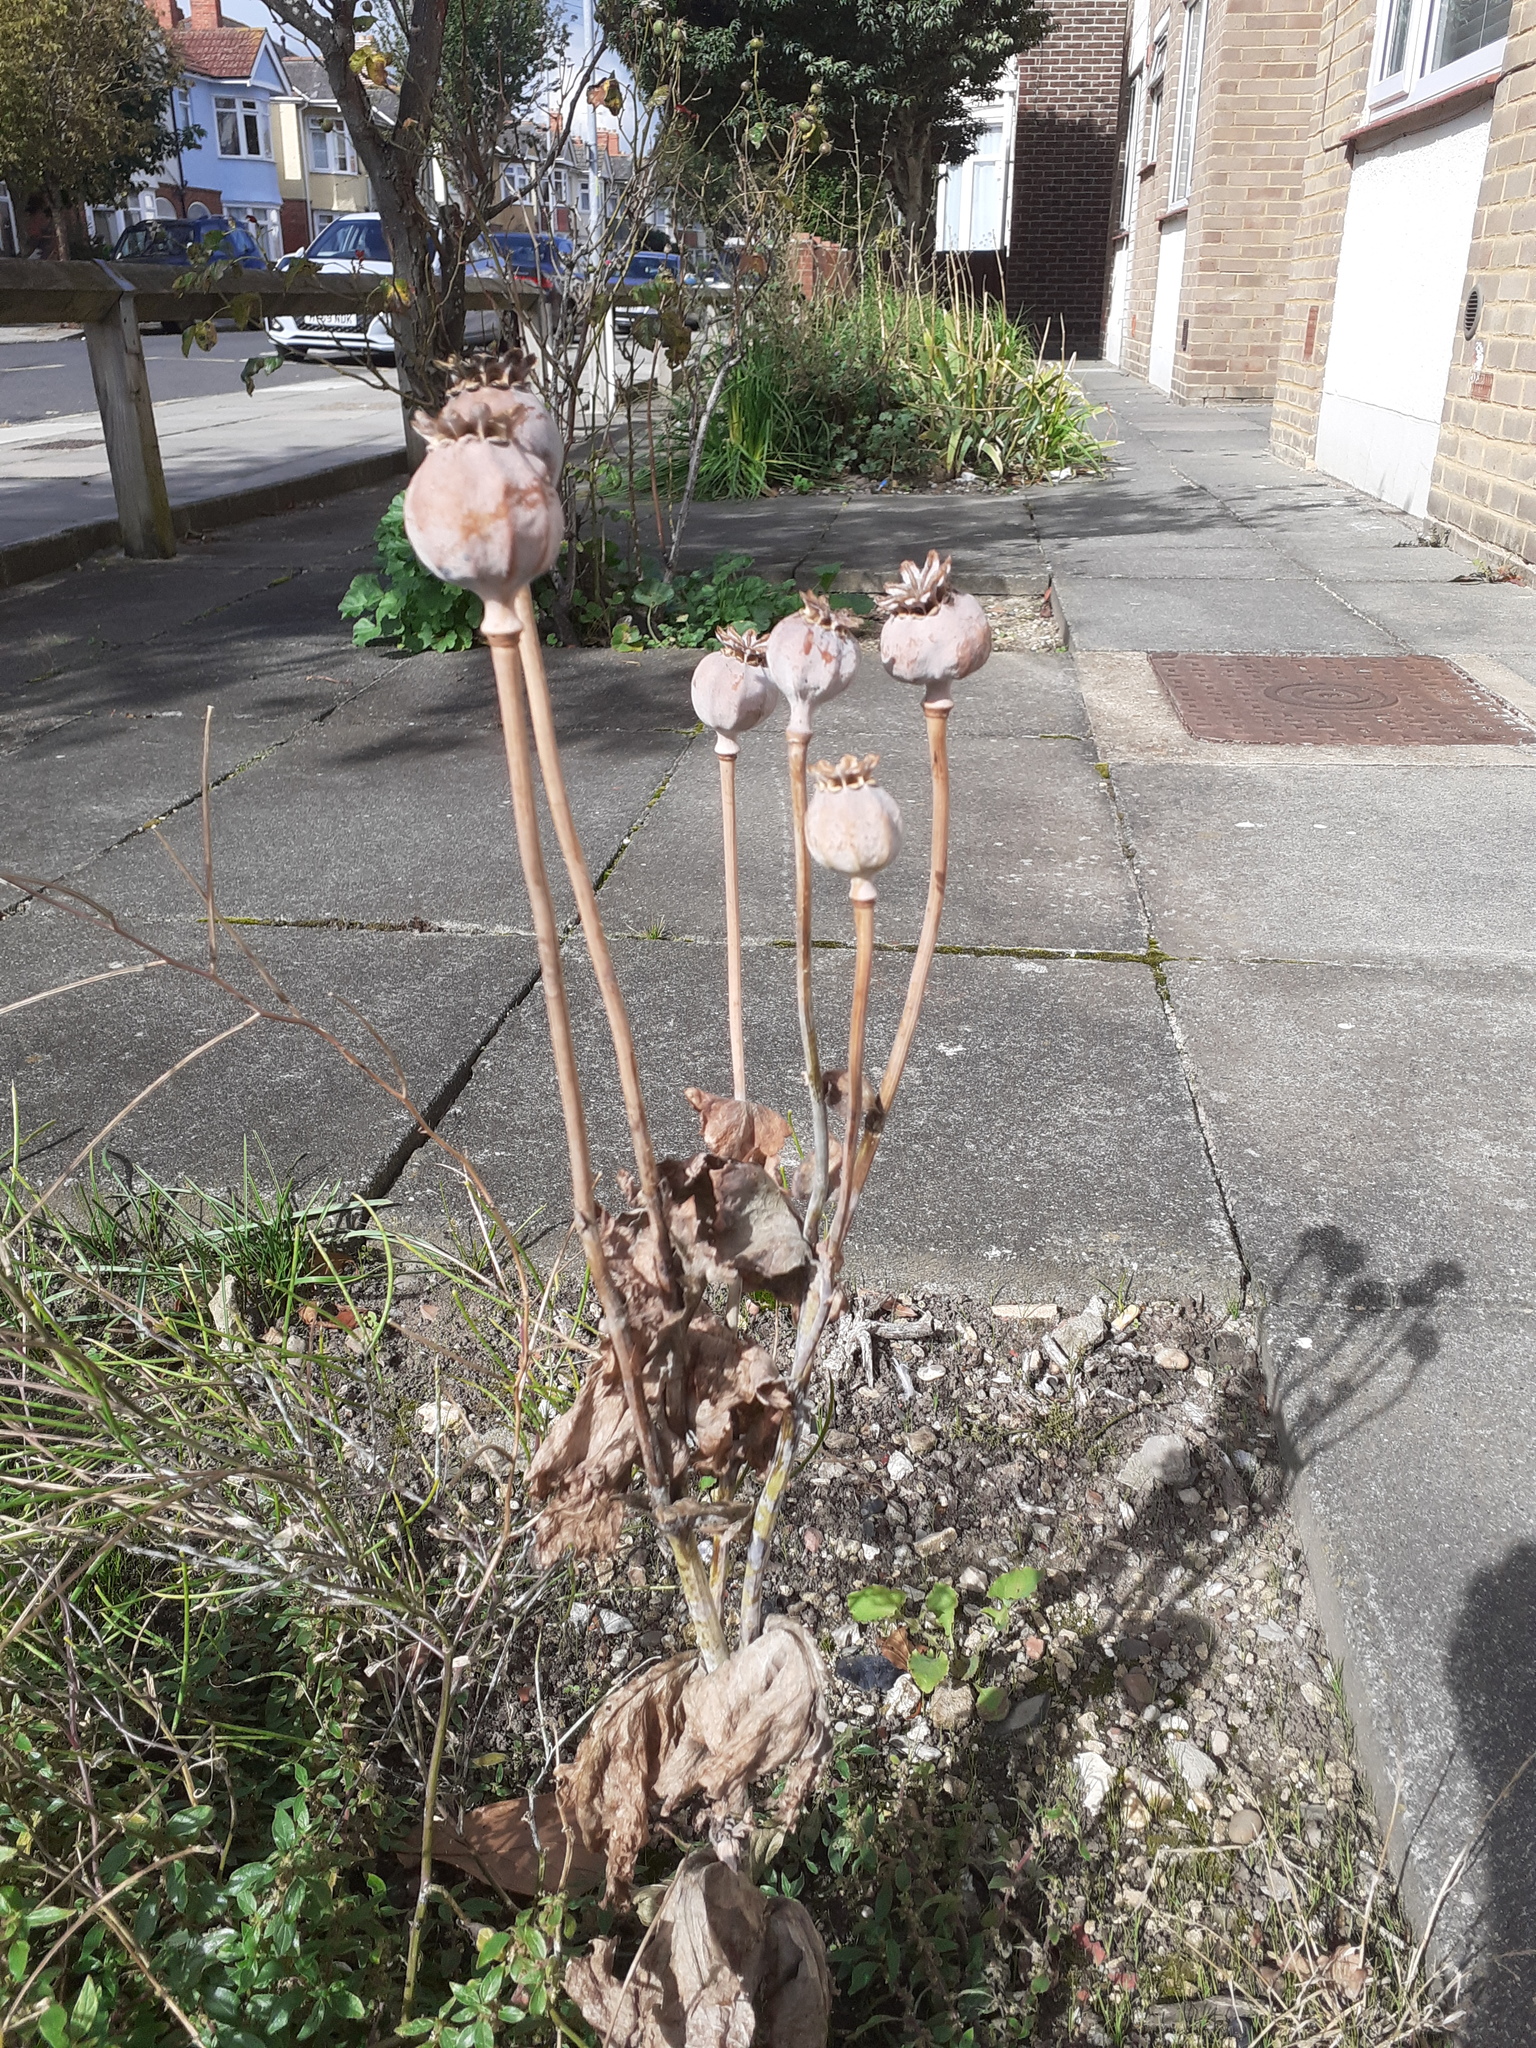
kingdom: Plantae
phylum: Tracheophyta
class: Magnoliopsida
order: Ranunculales
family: Papaveraceae
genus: Papaver
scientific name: Papaver somniferum
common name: Opium poppy
